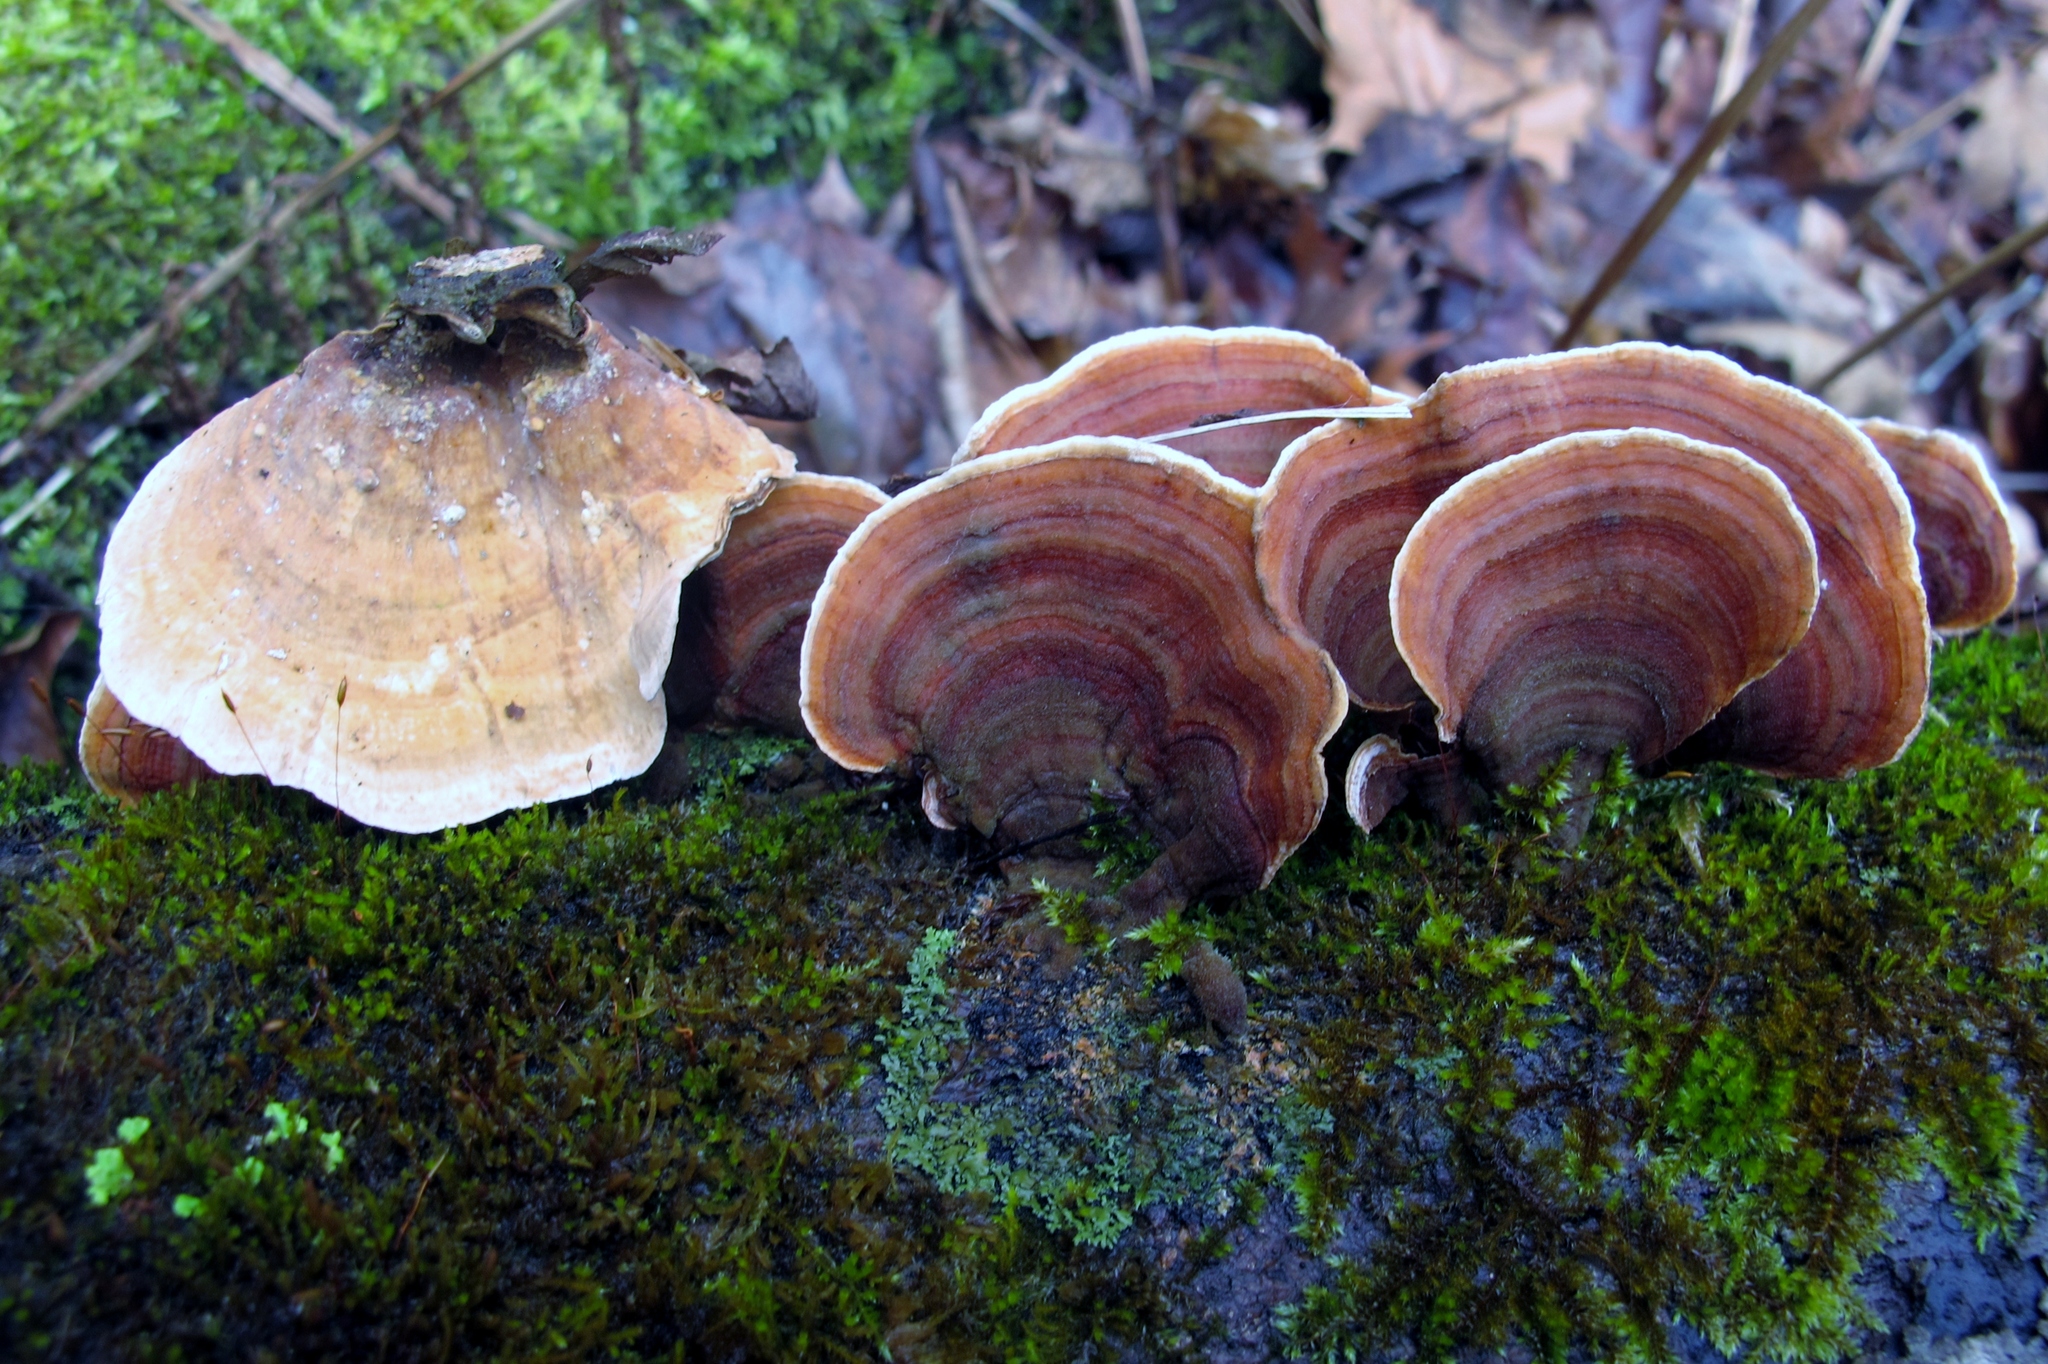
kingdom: Fungi
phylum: Basidiomycota
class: Agaricomycetes
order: Russulales
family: Stereaceae
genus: Stereum
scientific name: Stereum ostrea
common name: False turkeytail
